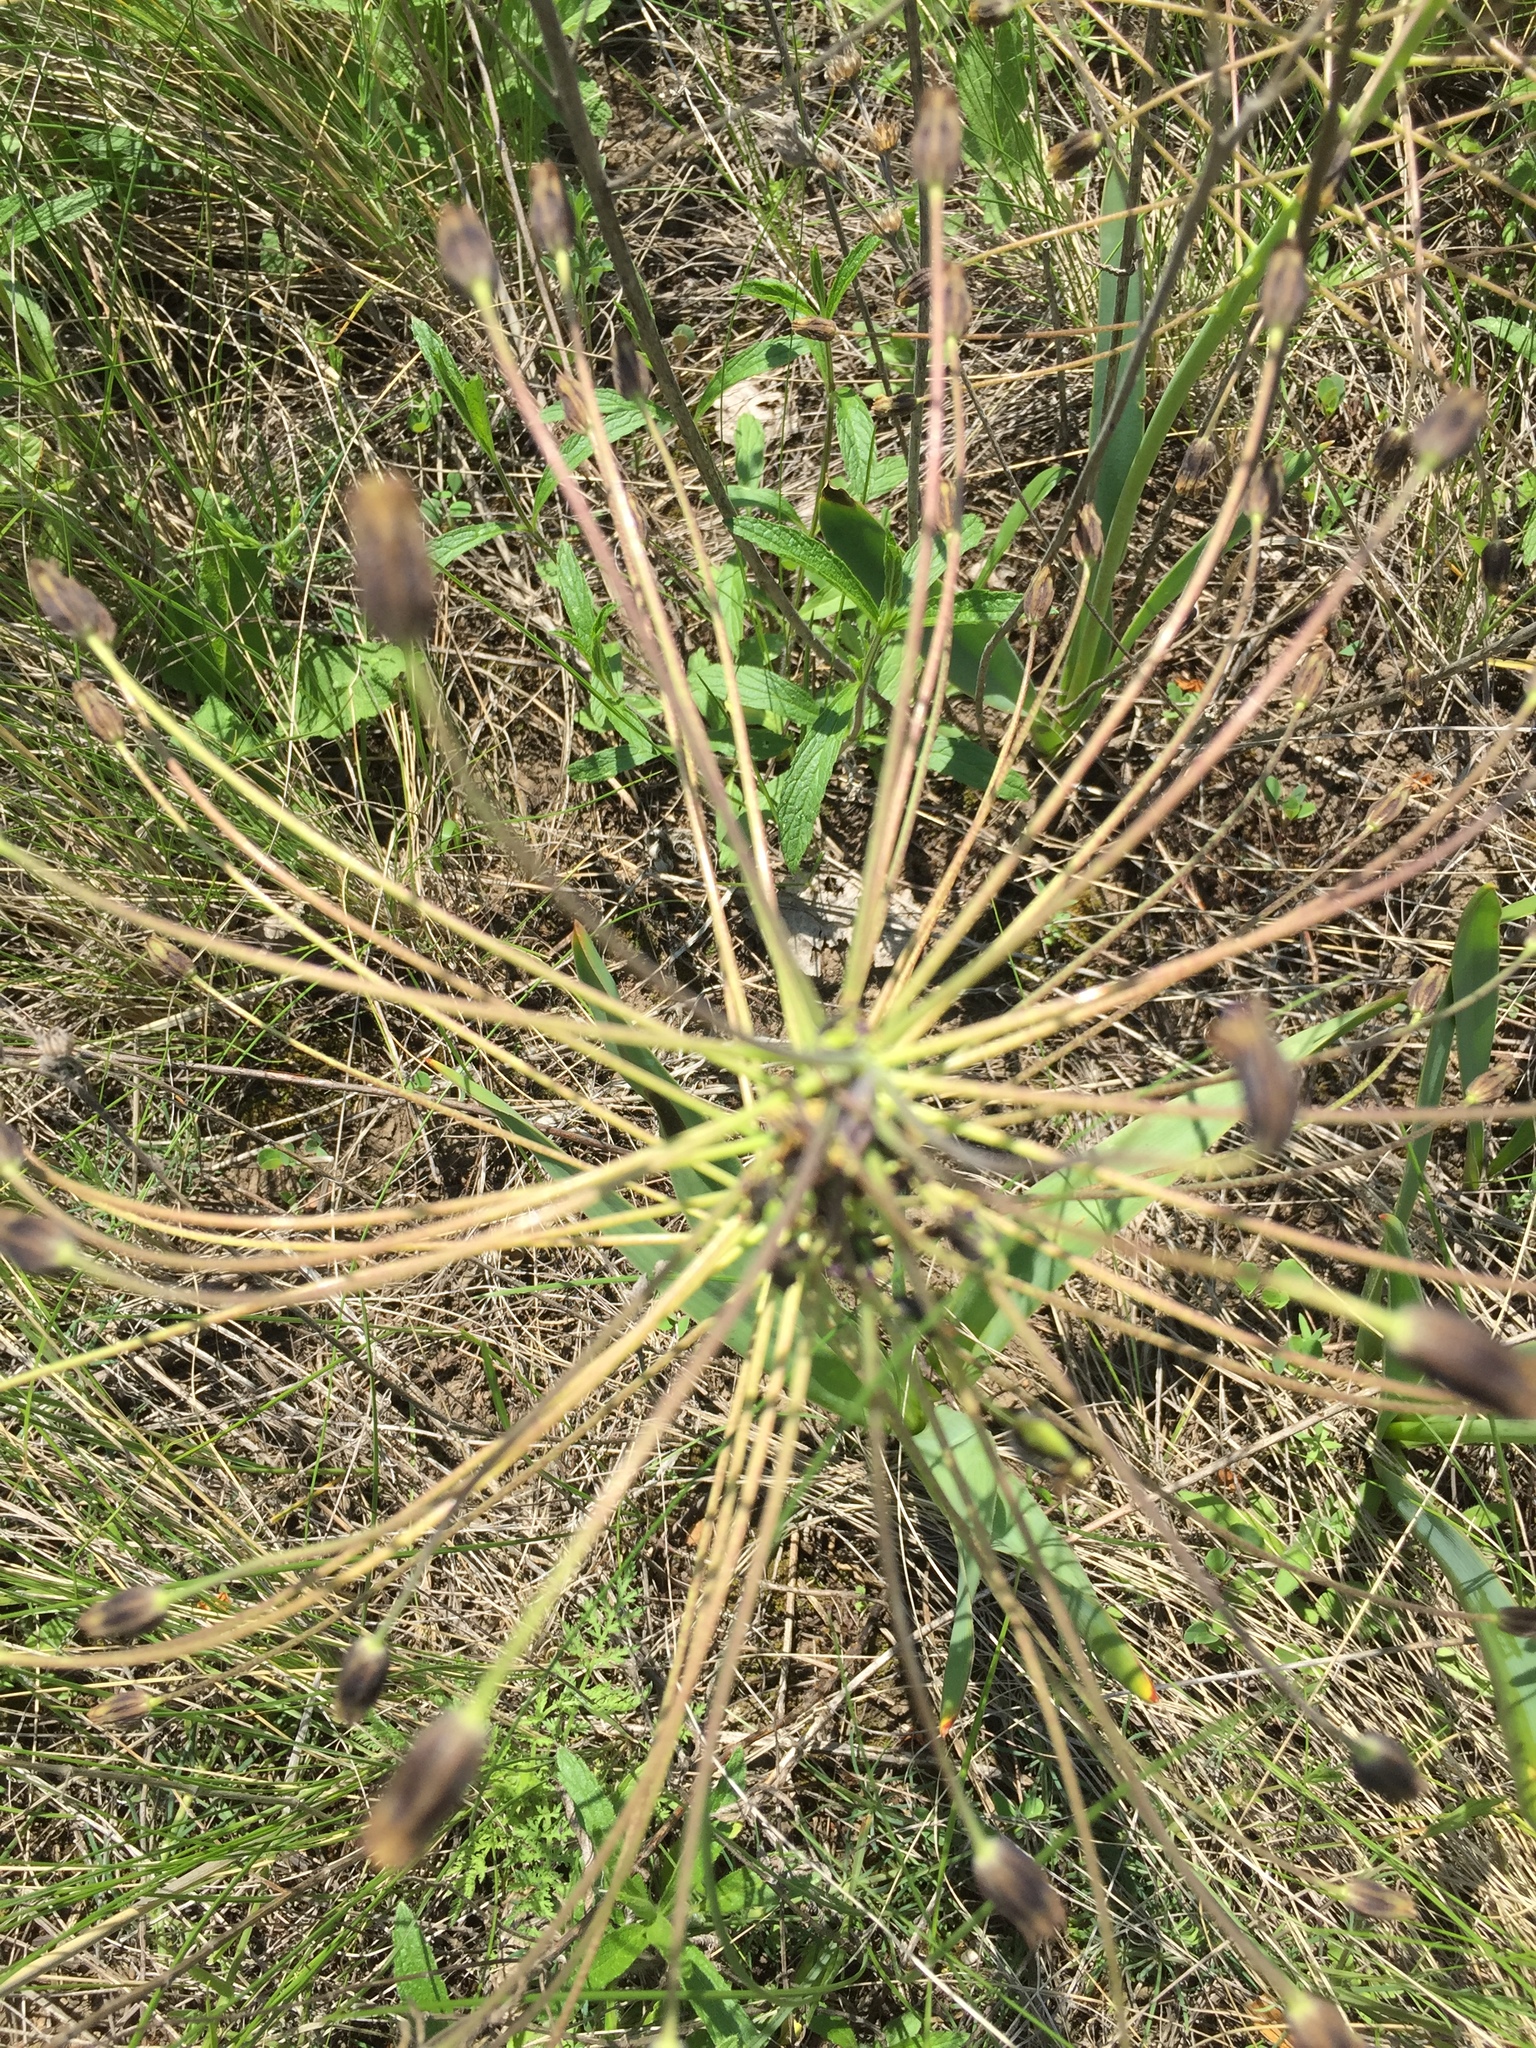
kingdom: Plantae
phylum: Tracheophyta
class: Liliopsida
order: Asparagales
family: Asparagaceae
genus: Bellevalia
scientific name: Bellevalia speciosa
